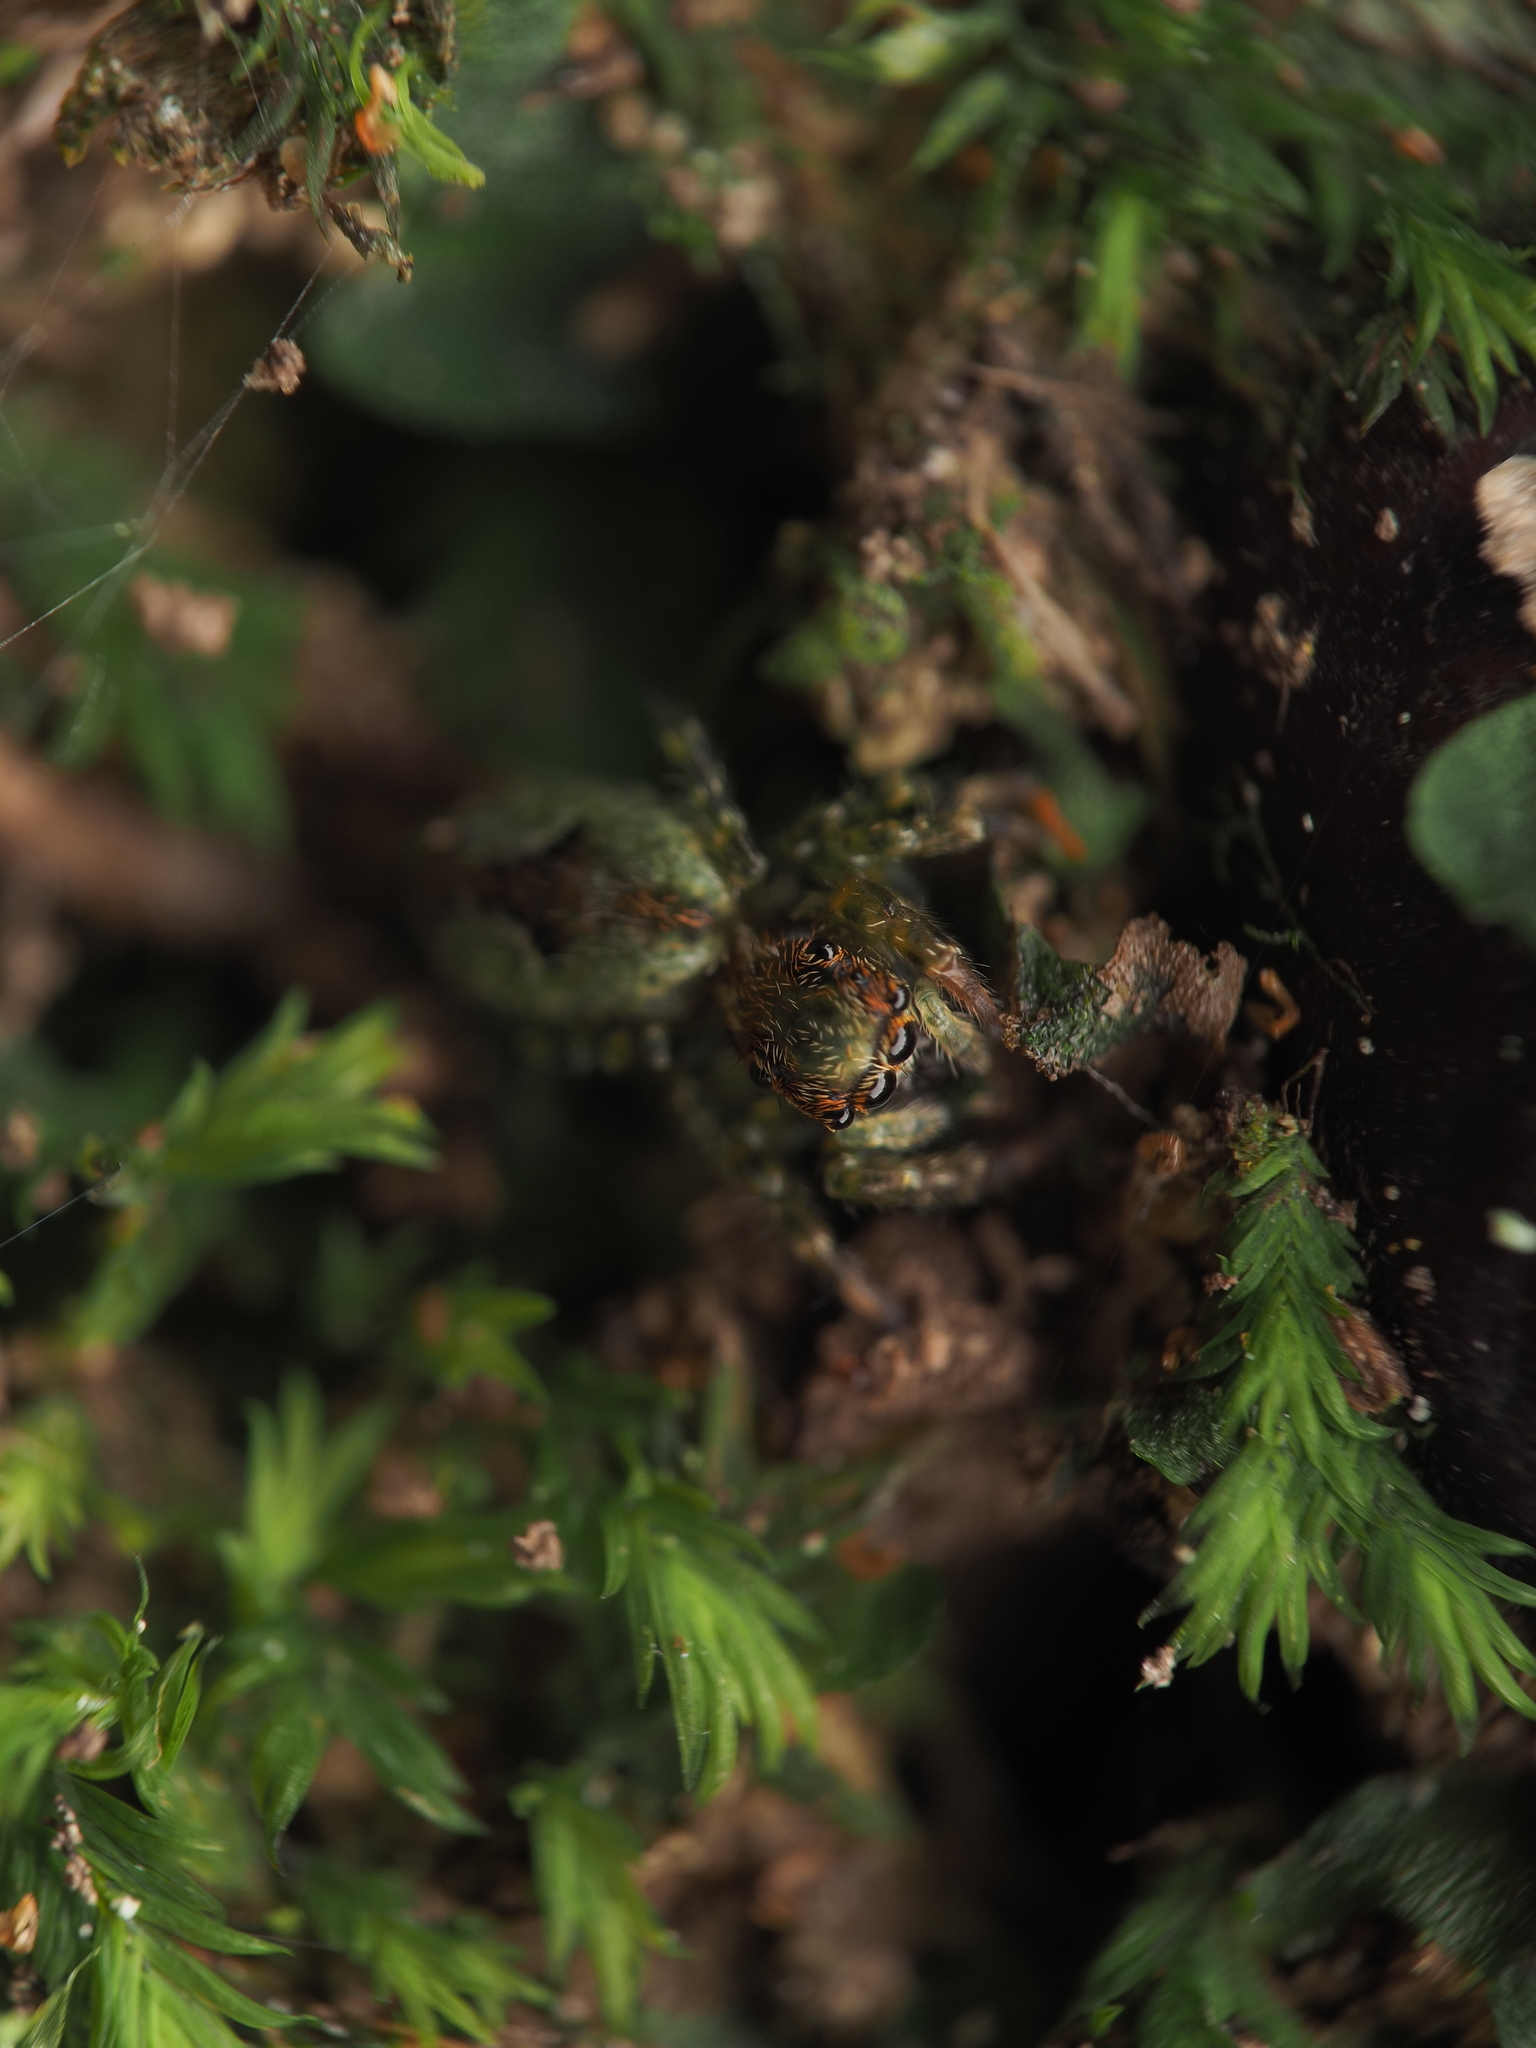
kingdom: Animalia
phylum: Arthropoda
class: Arachnida
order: Araneae
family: Salticidae
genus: Hinewaia
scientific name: Hinewaia embolica
